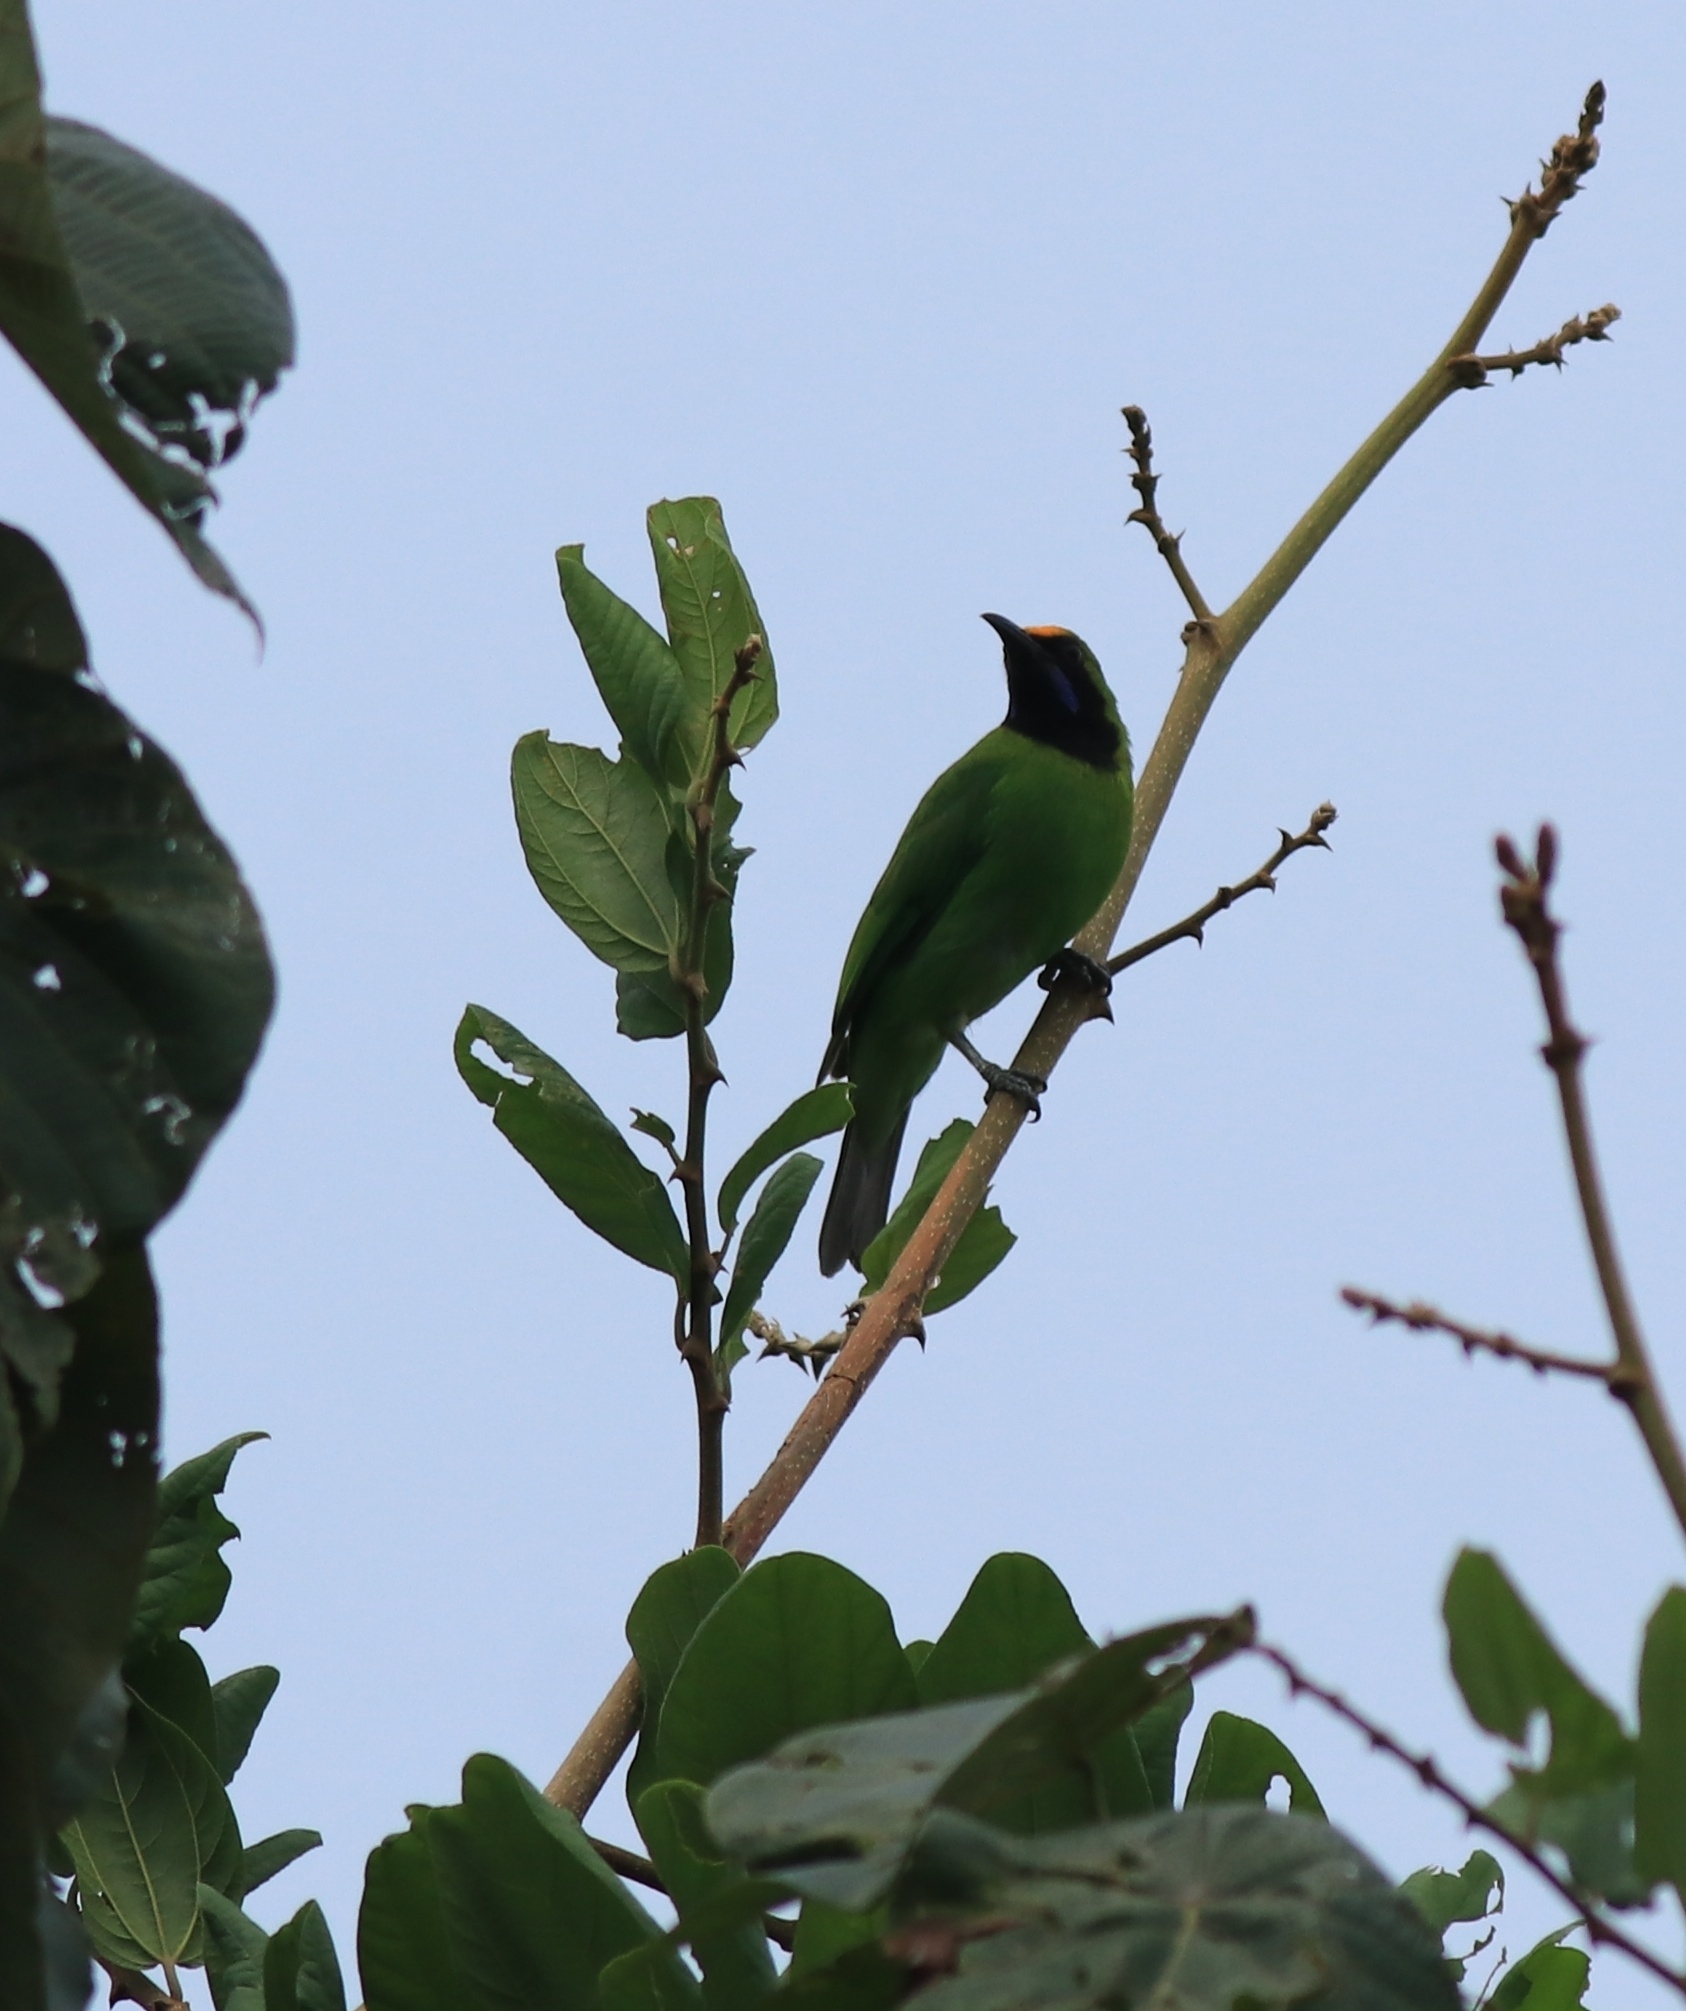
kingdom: Animalia
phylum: Chordata
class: Aves
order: Passeriformes
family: Chloropseidae
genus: Chloropsis
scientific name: Chloropsis aurifrons
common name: Golden-fronted leafbird
